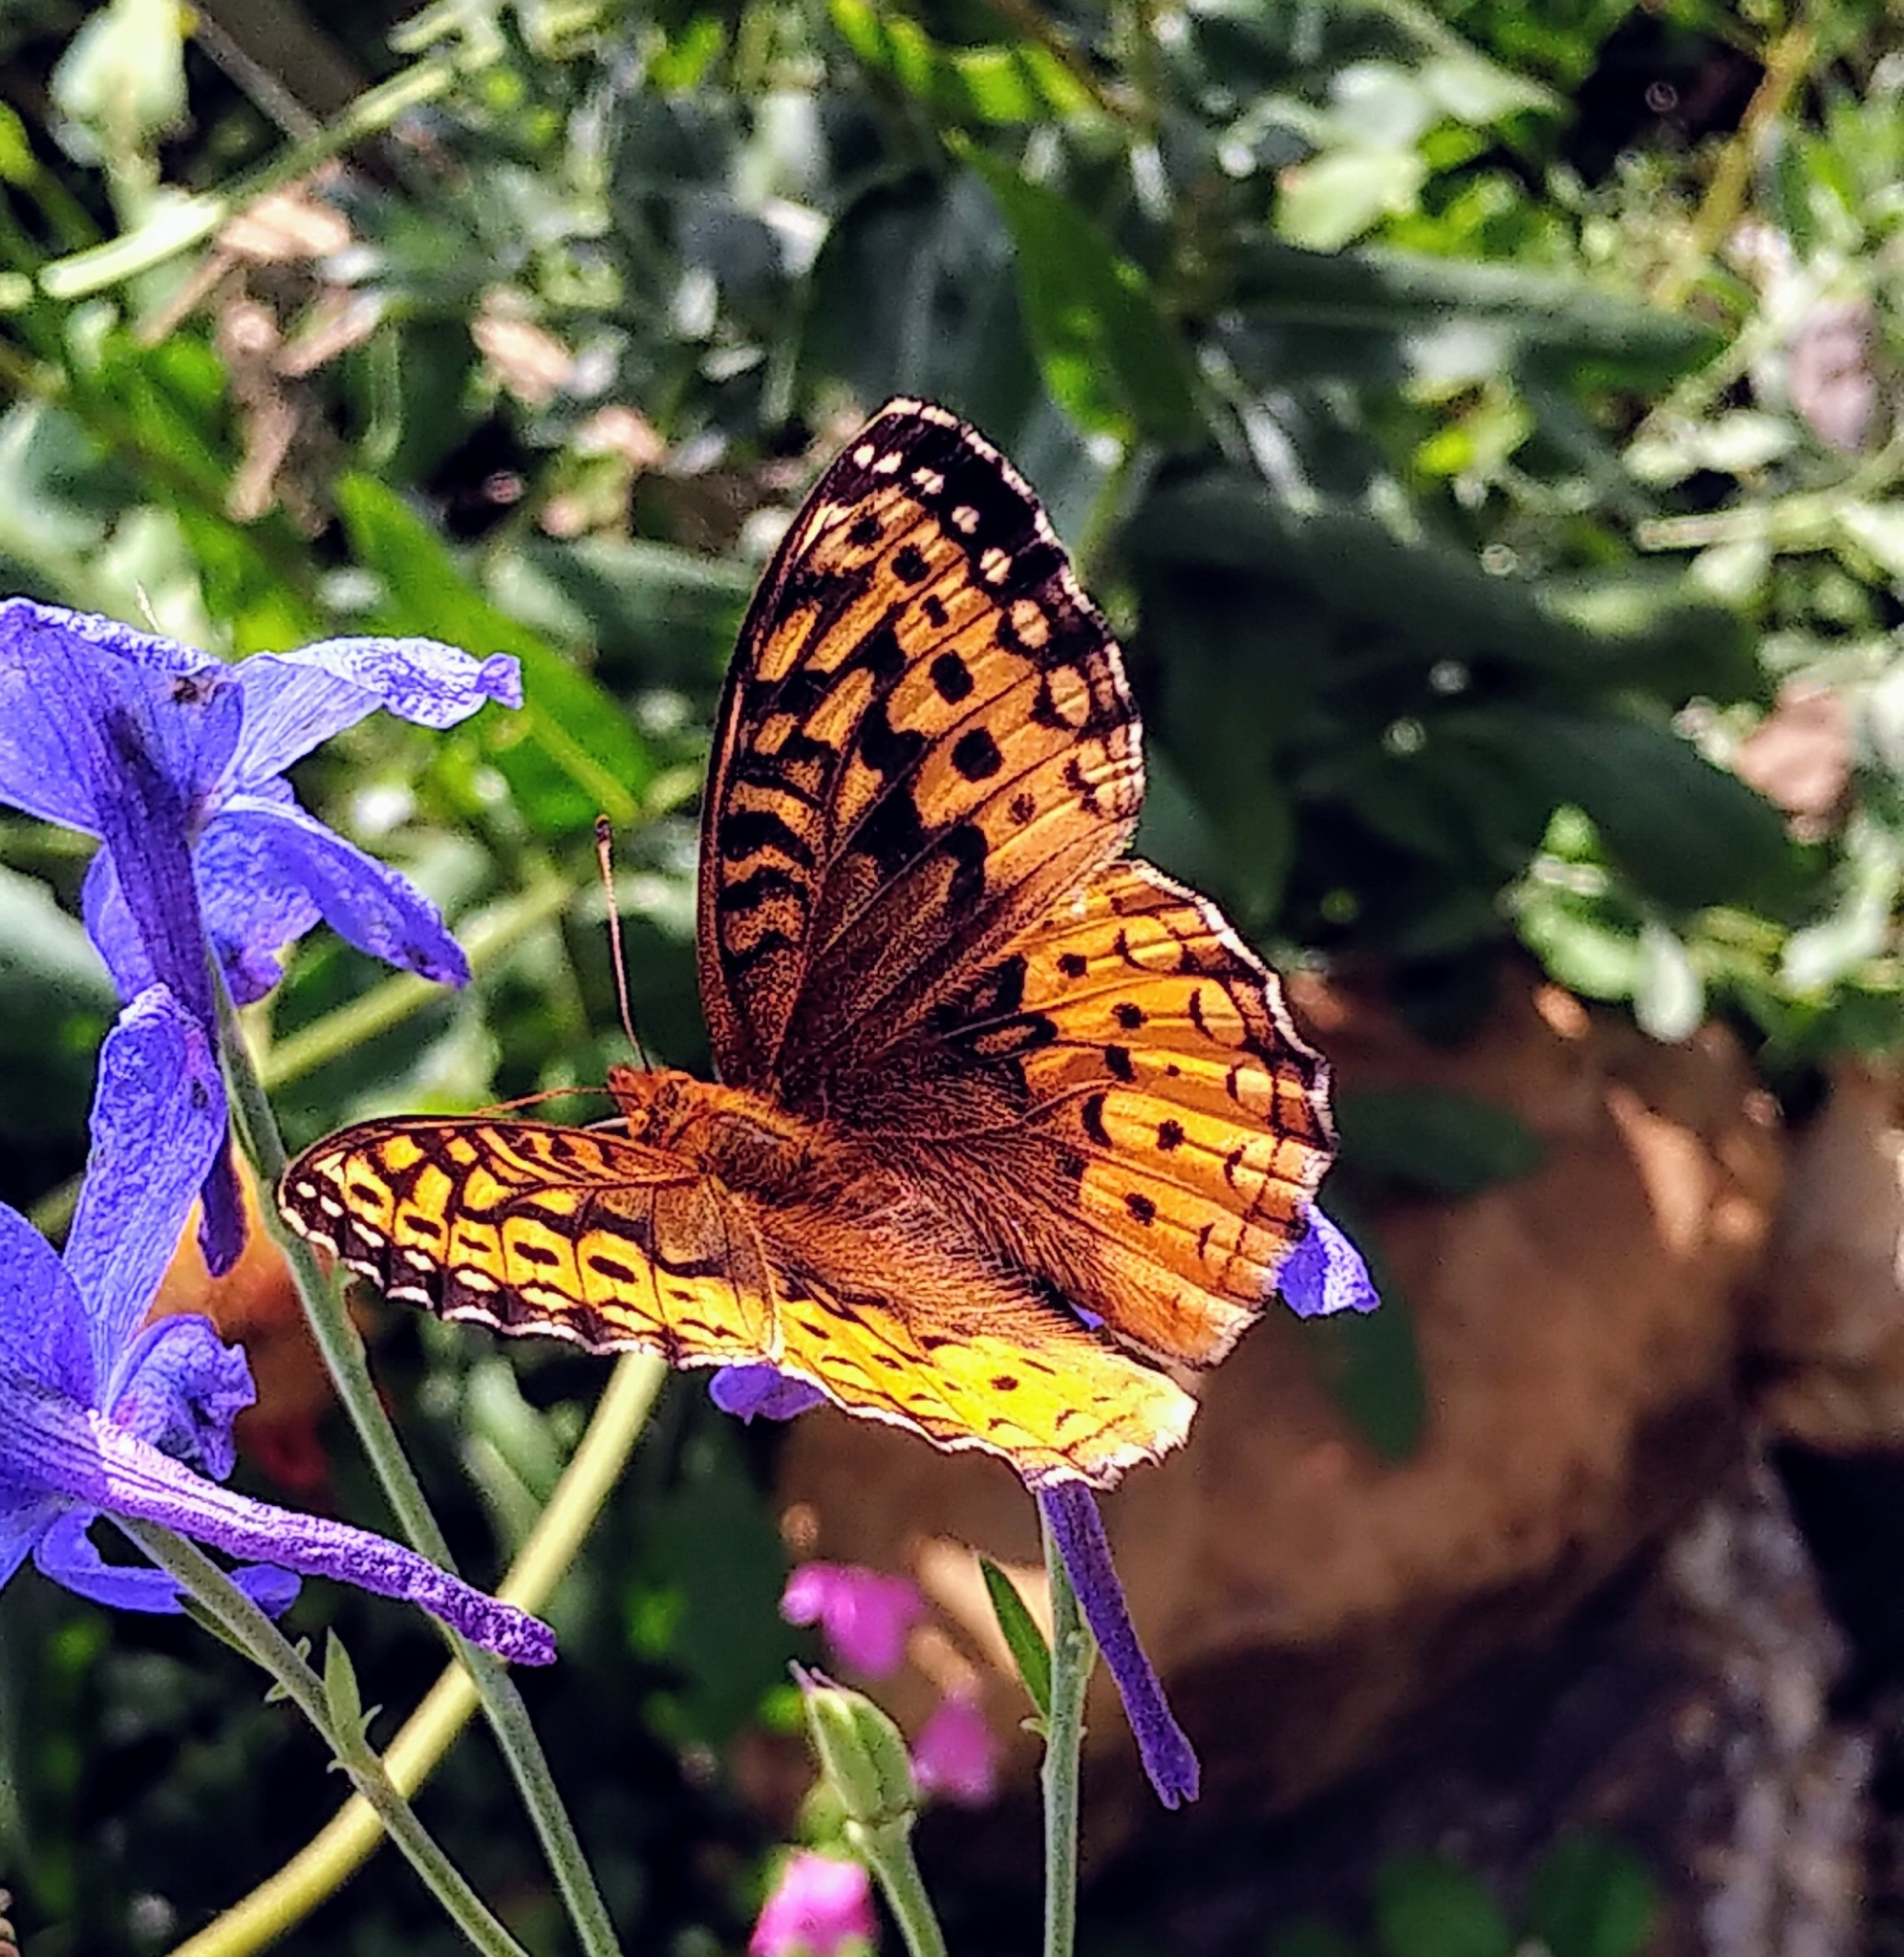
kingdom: Animalia
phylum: Arthropoda
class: Insecta
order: Lepidoptera
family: Nymphalidae
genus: Speyeria
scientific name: Speyeria cybele
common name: Great spangled fritillary
